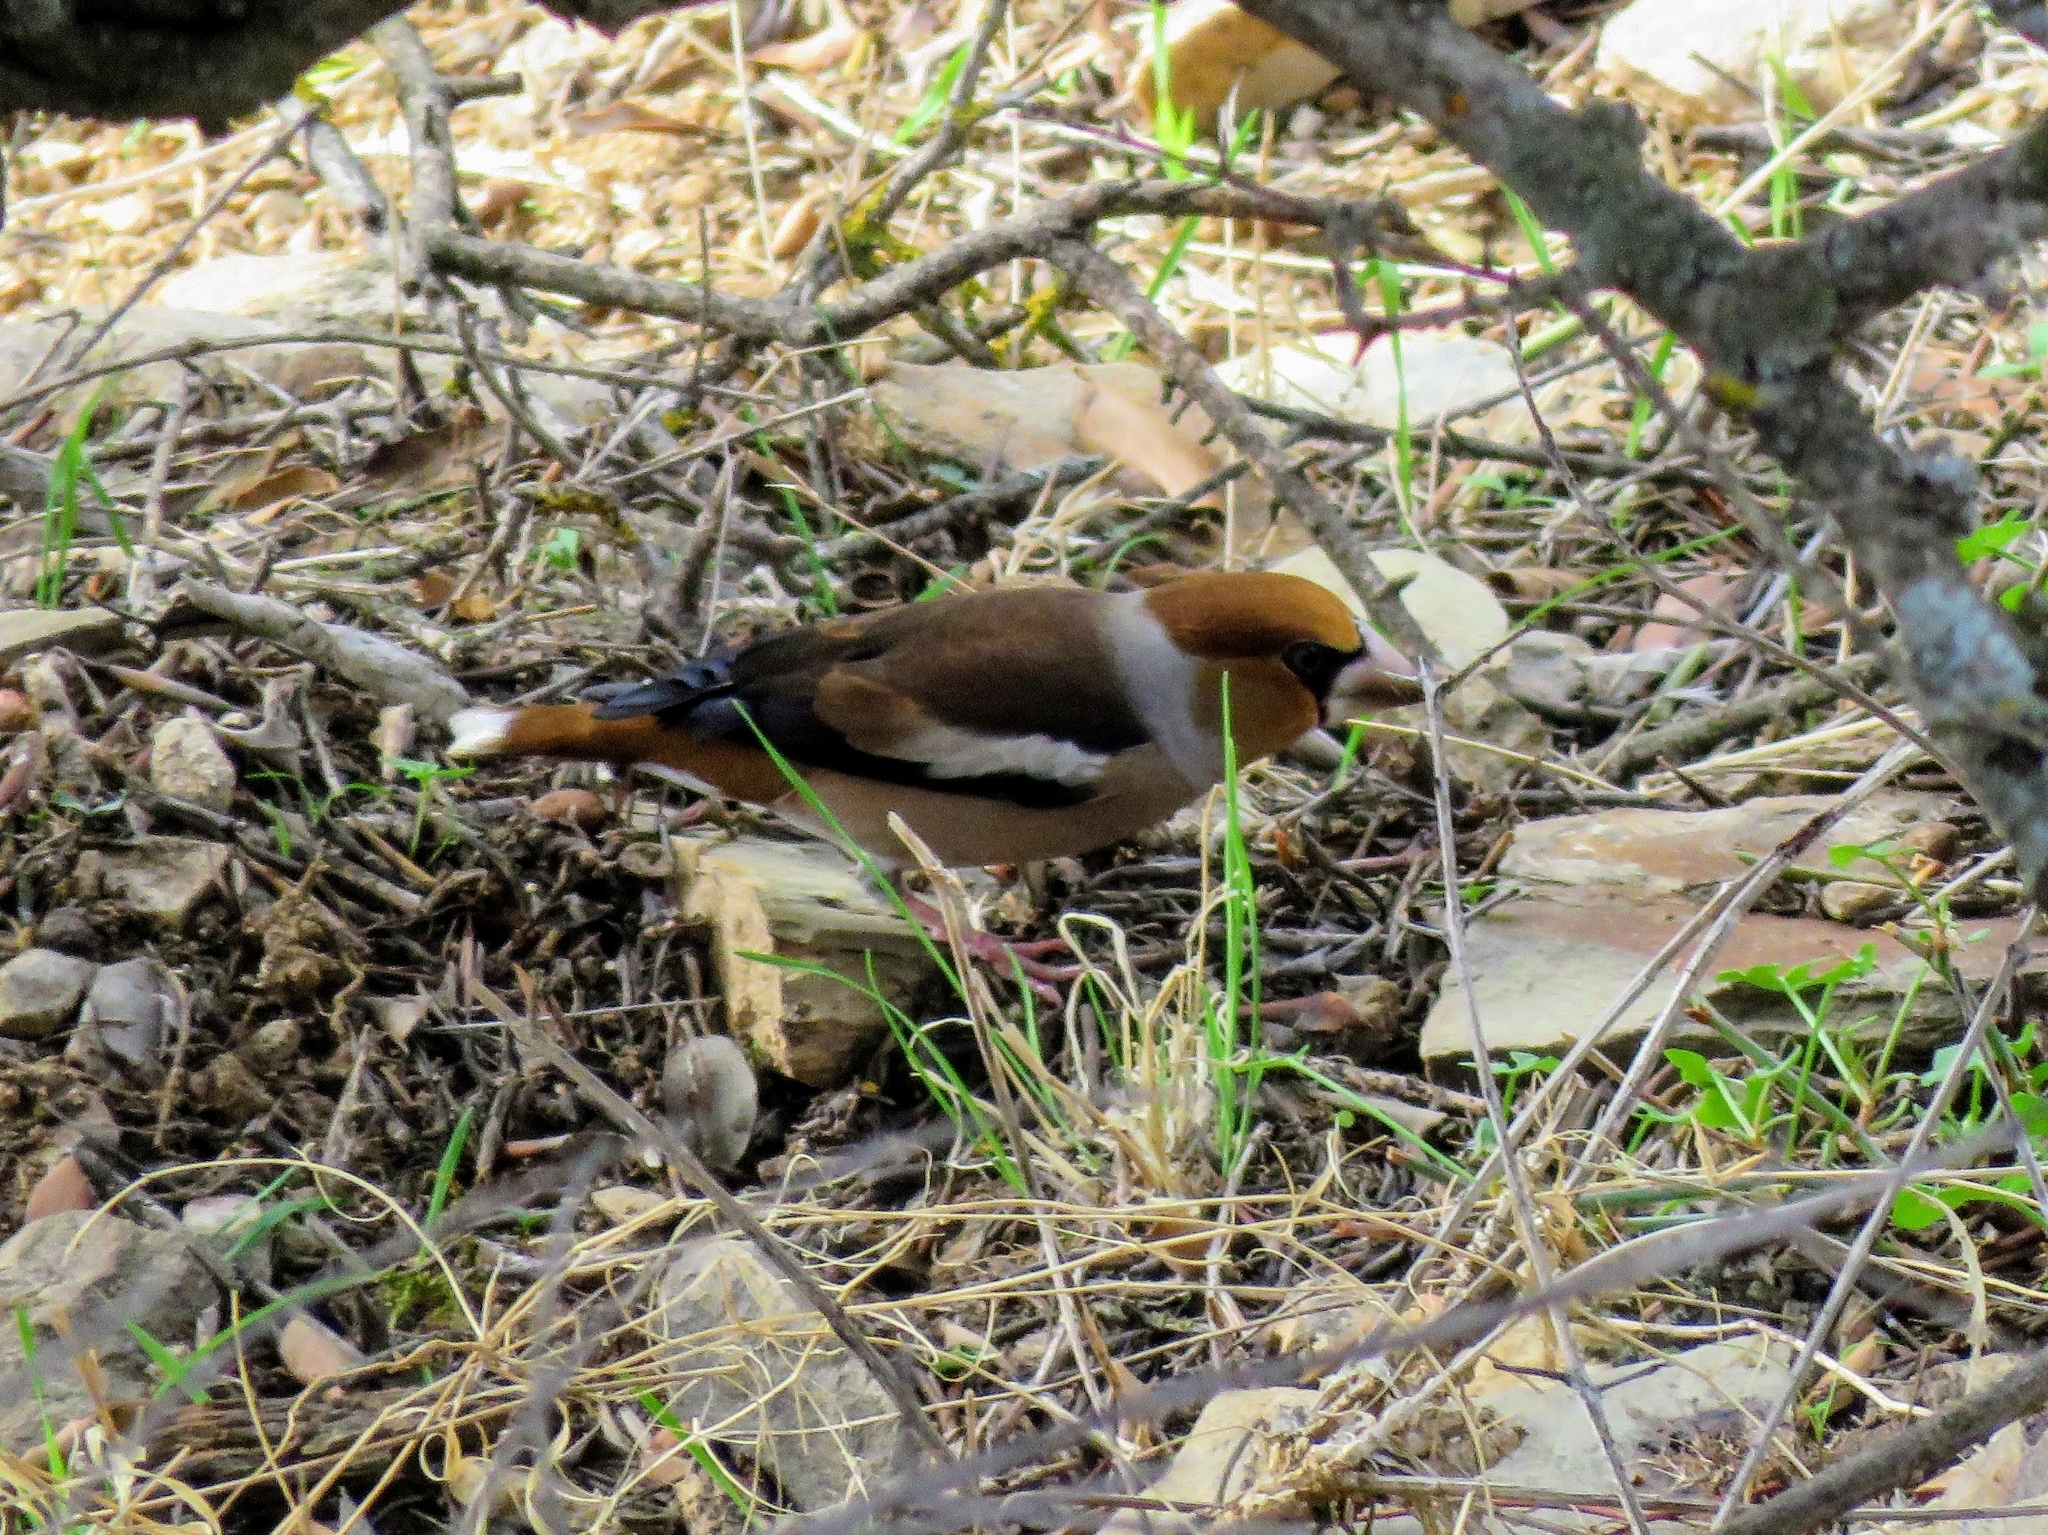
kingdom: Animalia
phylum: Chordata
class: Aves
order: Passeriformes
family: Fringillidae
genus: Coccothraustes
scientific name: Coccothraustes coccothraustes
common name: Hawfinch
